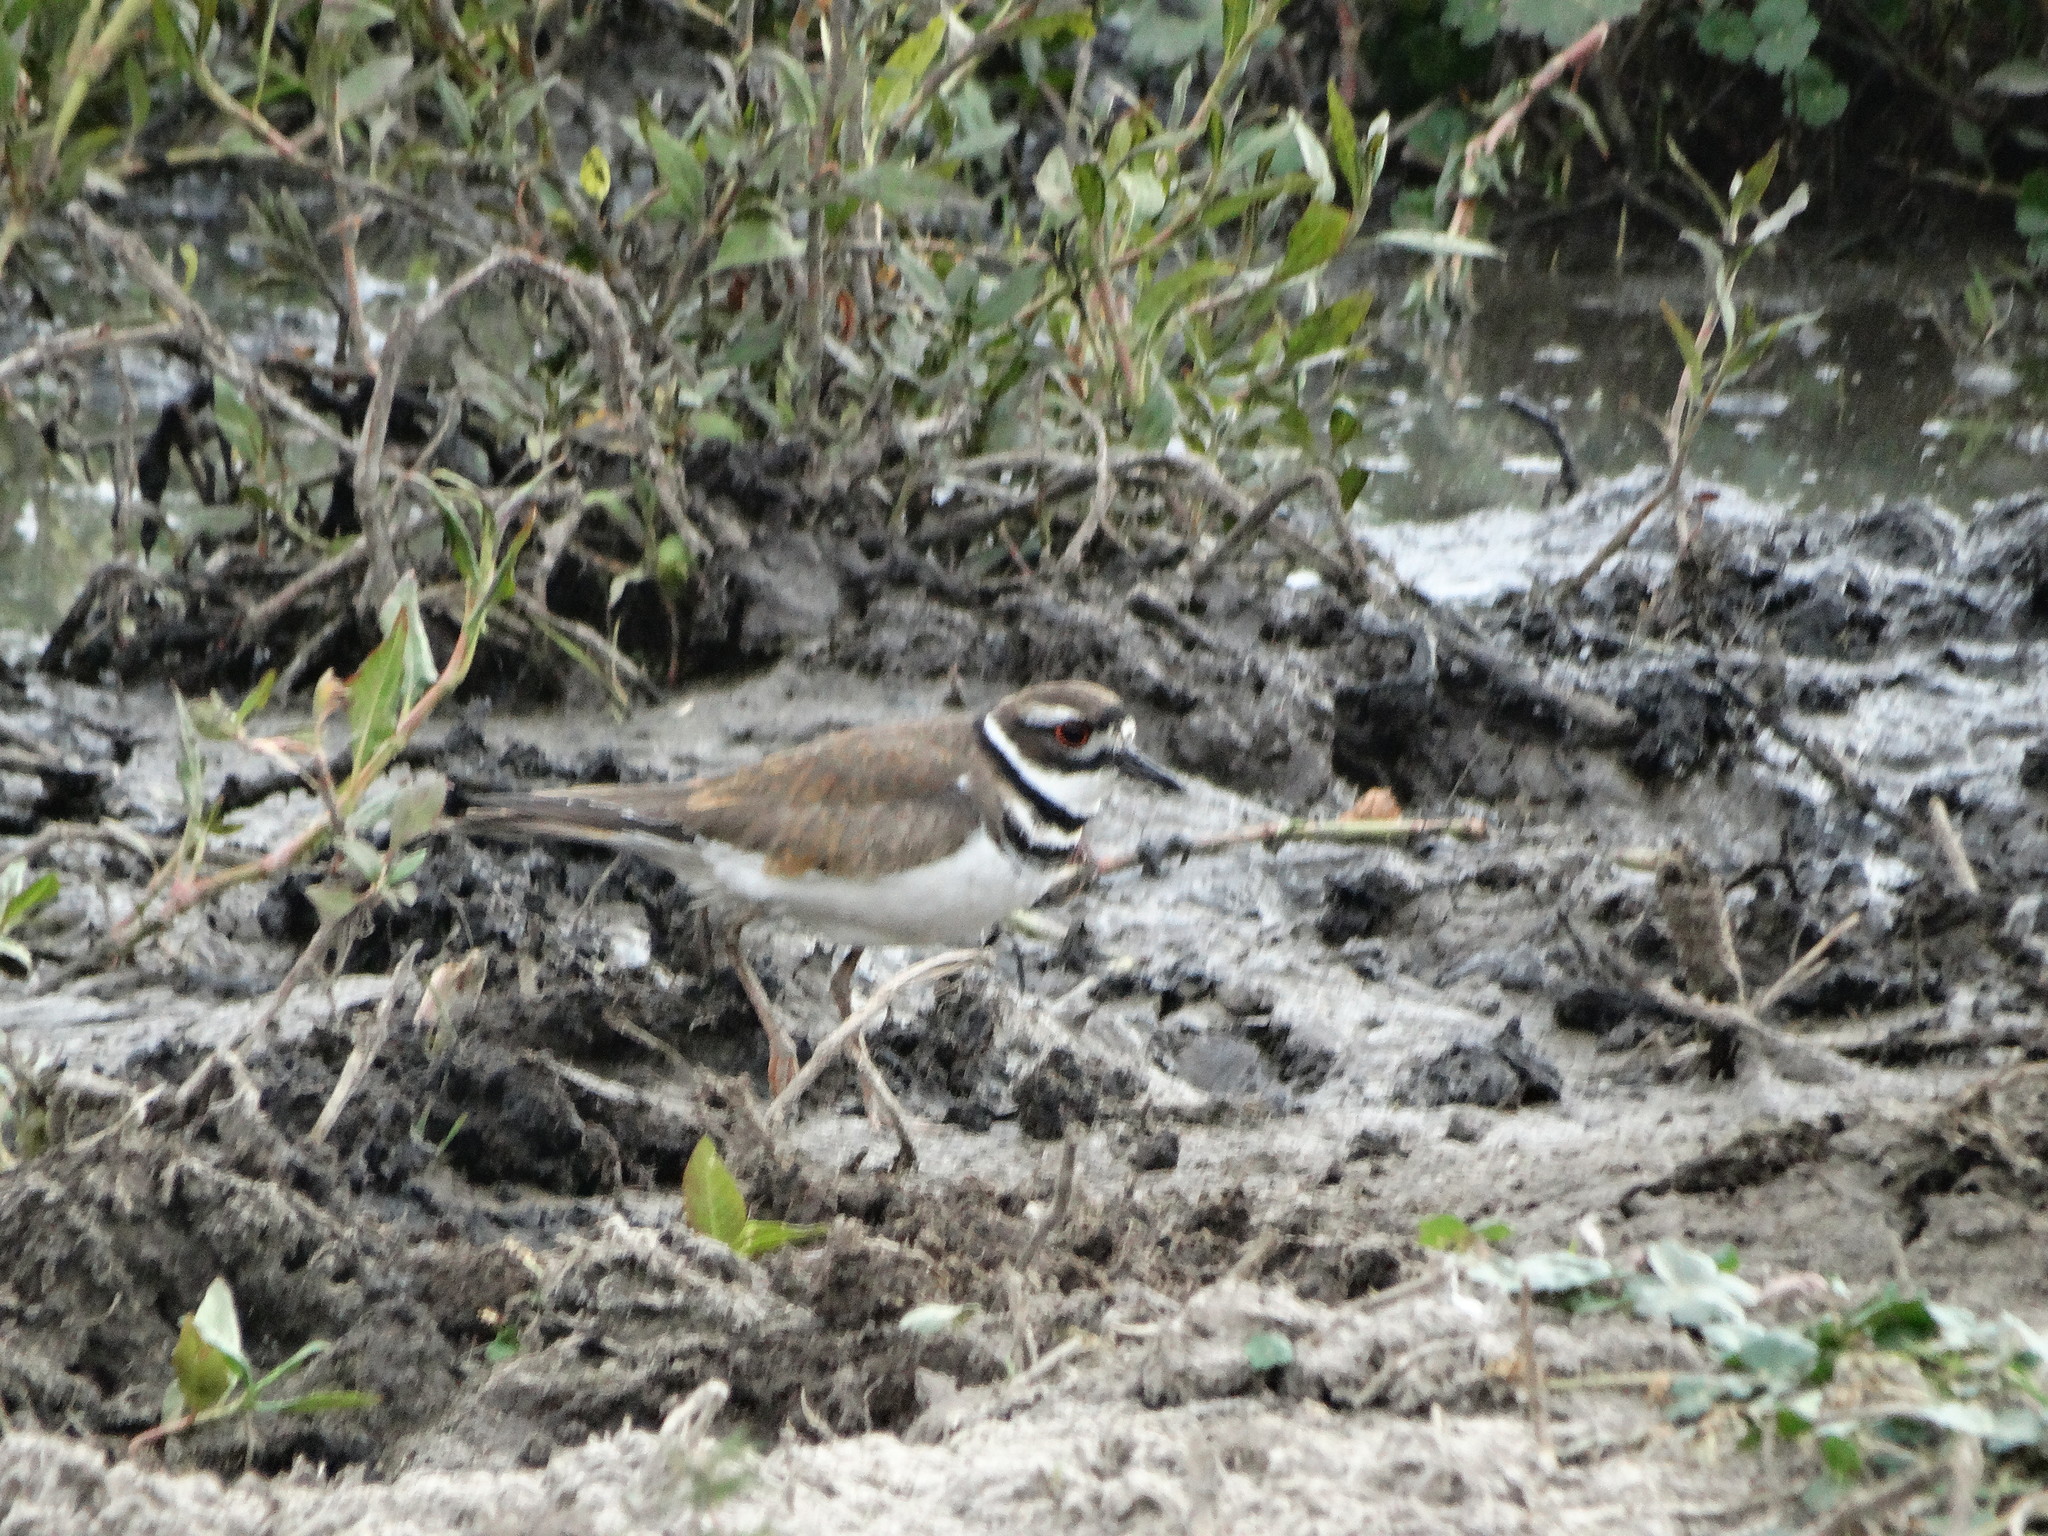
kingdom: Animalia
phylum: Chordata
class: Aves
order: Charadriiformes
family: Charadriidae
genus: Charadrius
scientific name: Charadrius vociferus
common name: Killdeer
